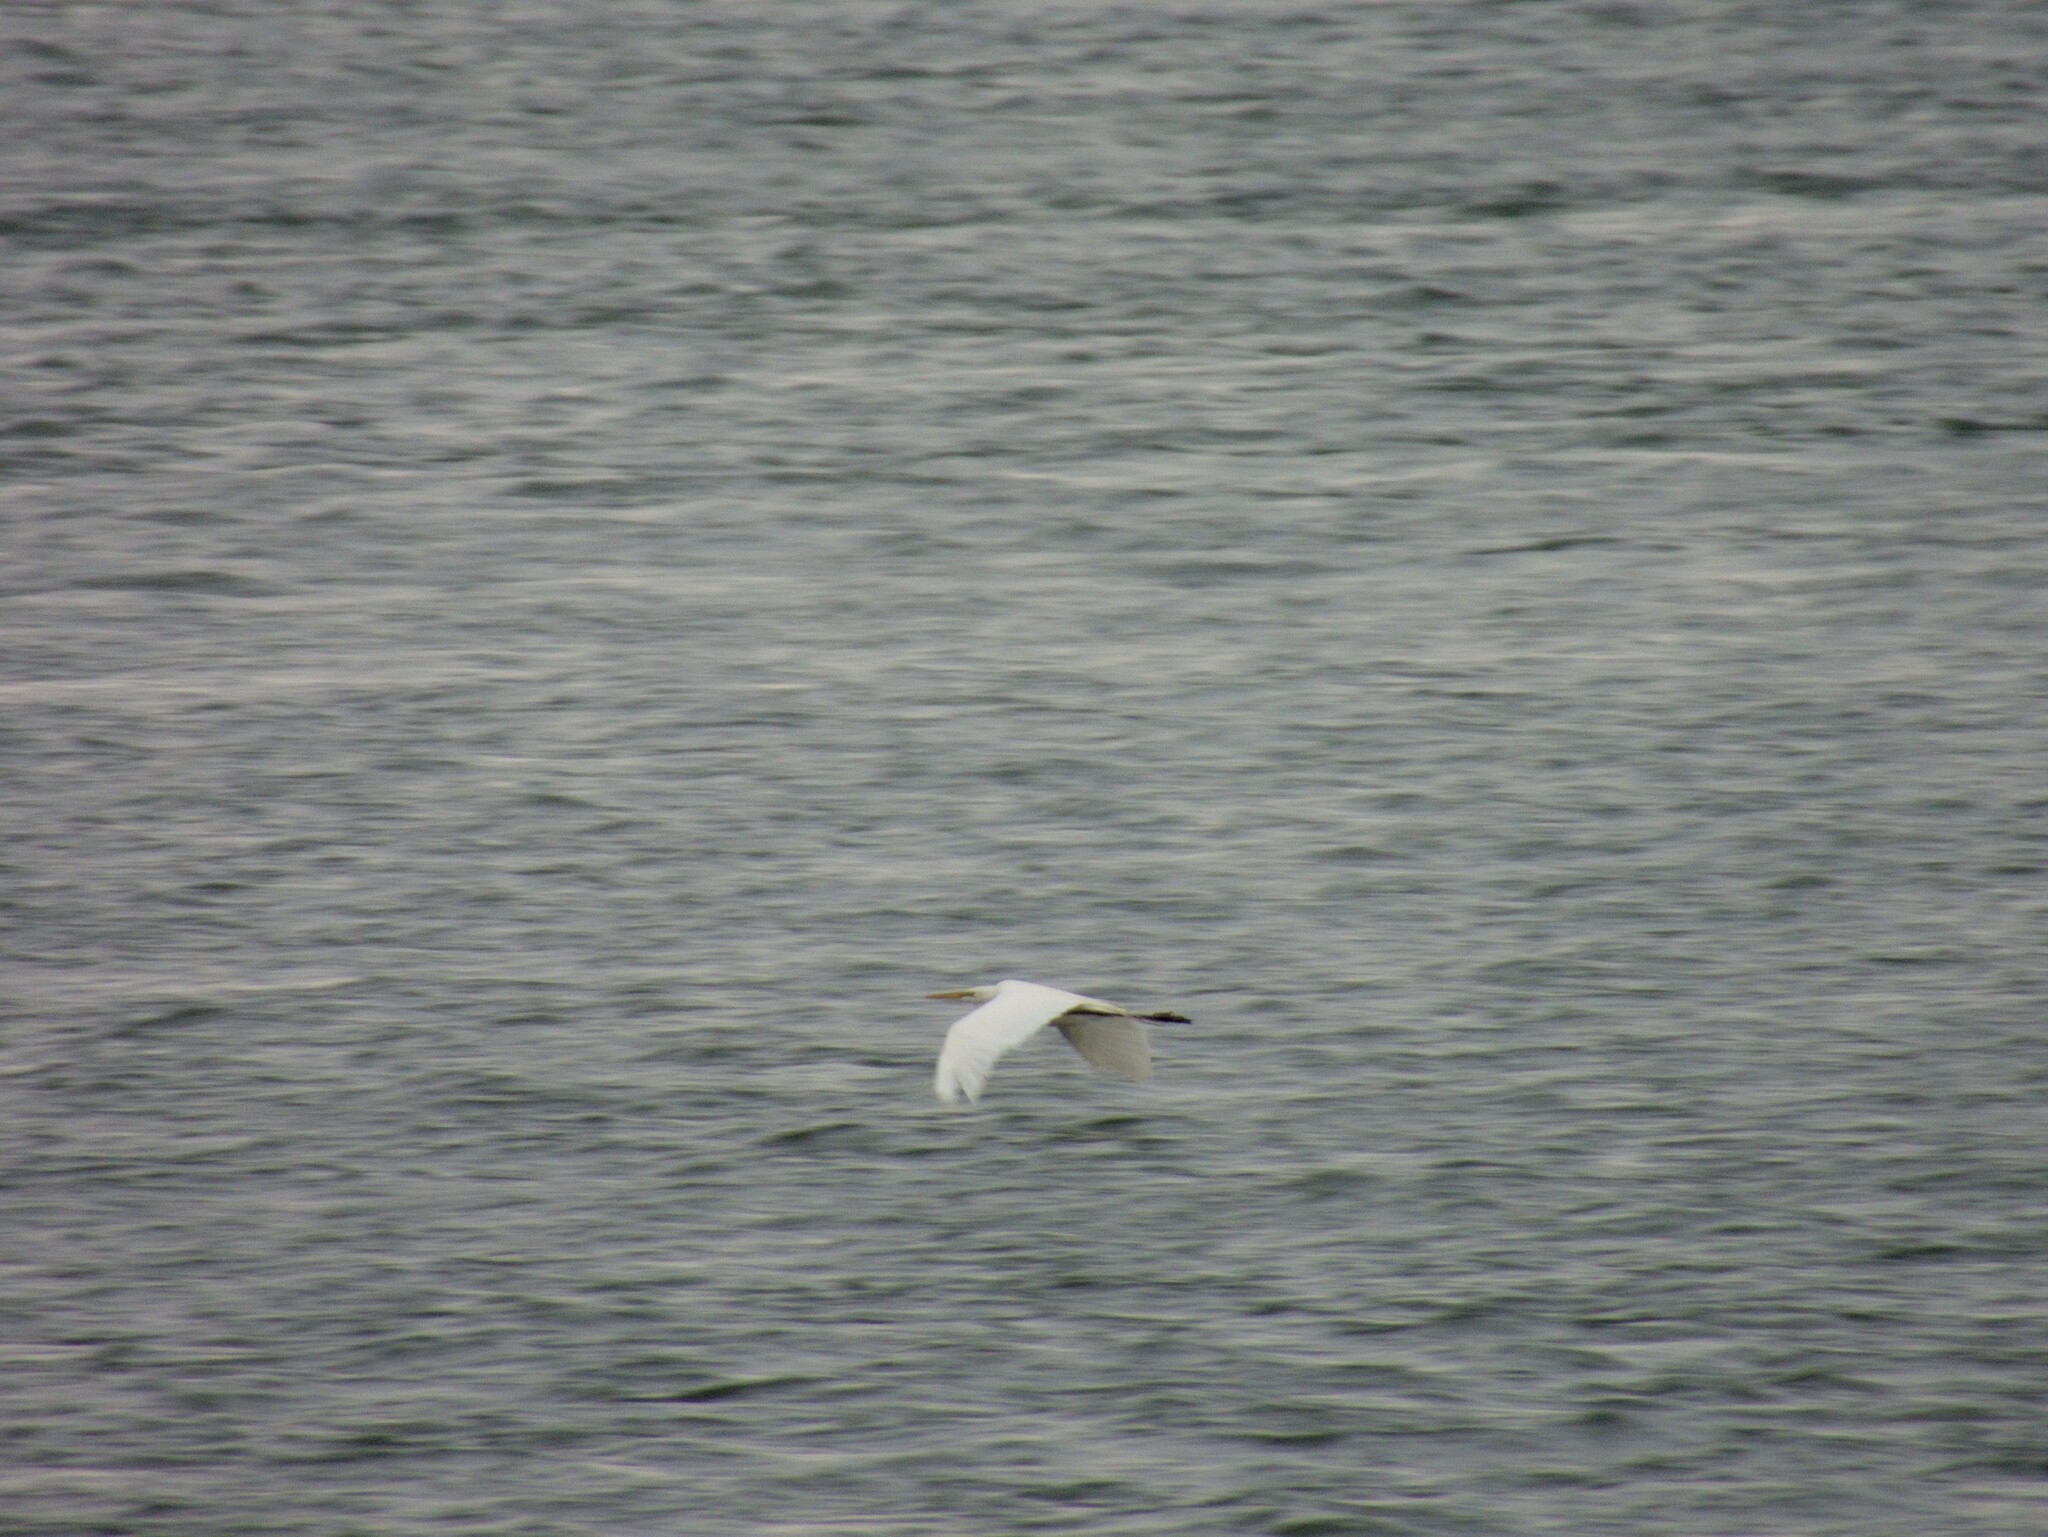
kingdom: Animalia
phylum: Chordata
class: Aves
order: Pelecaniformes
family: Ardeidae
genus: Ardea
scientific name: Ardea alba
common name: Great egret
